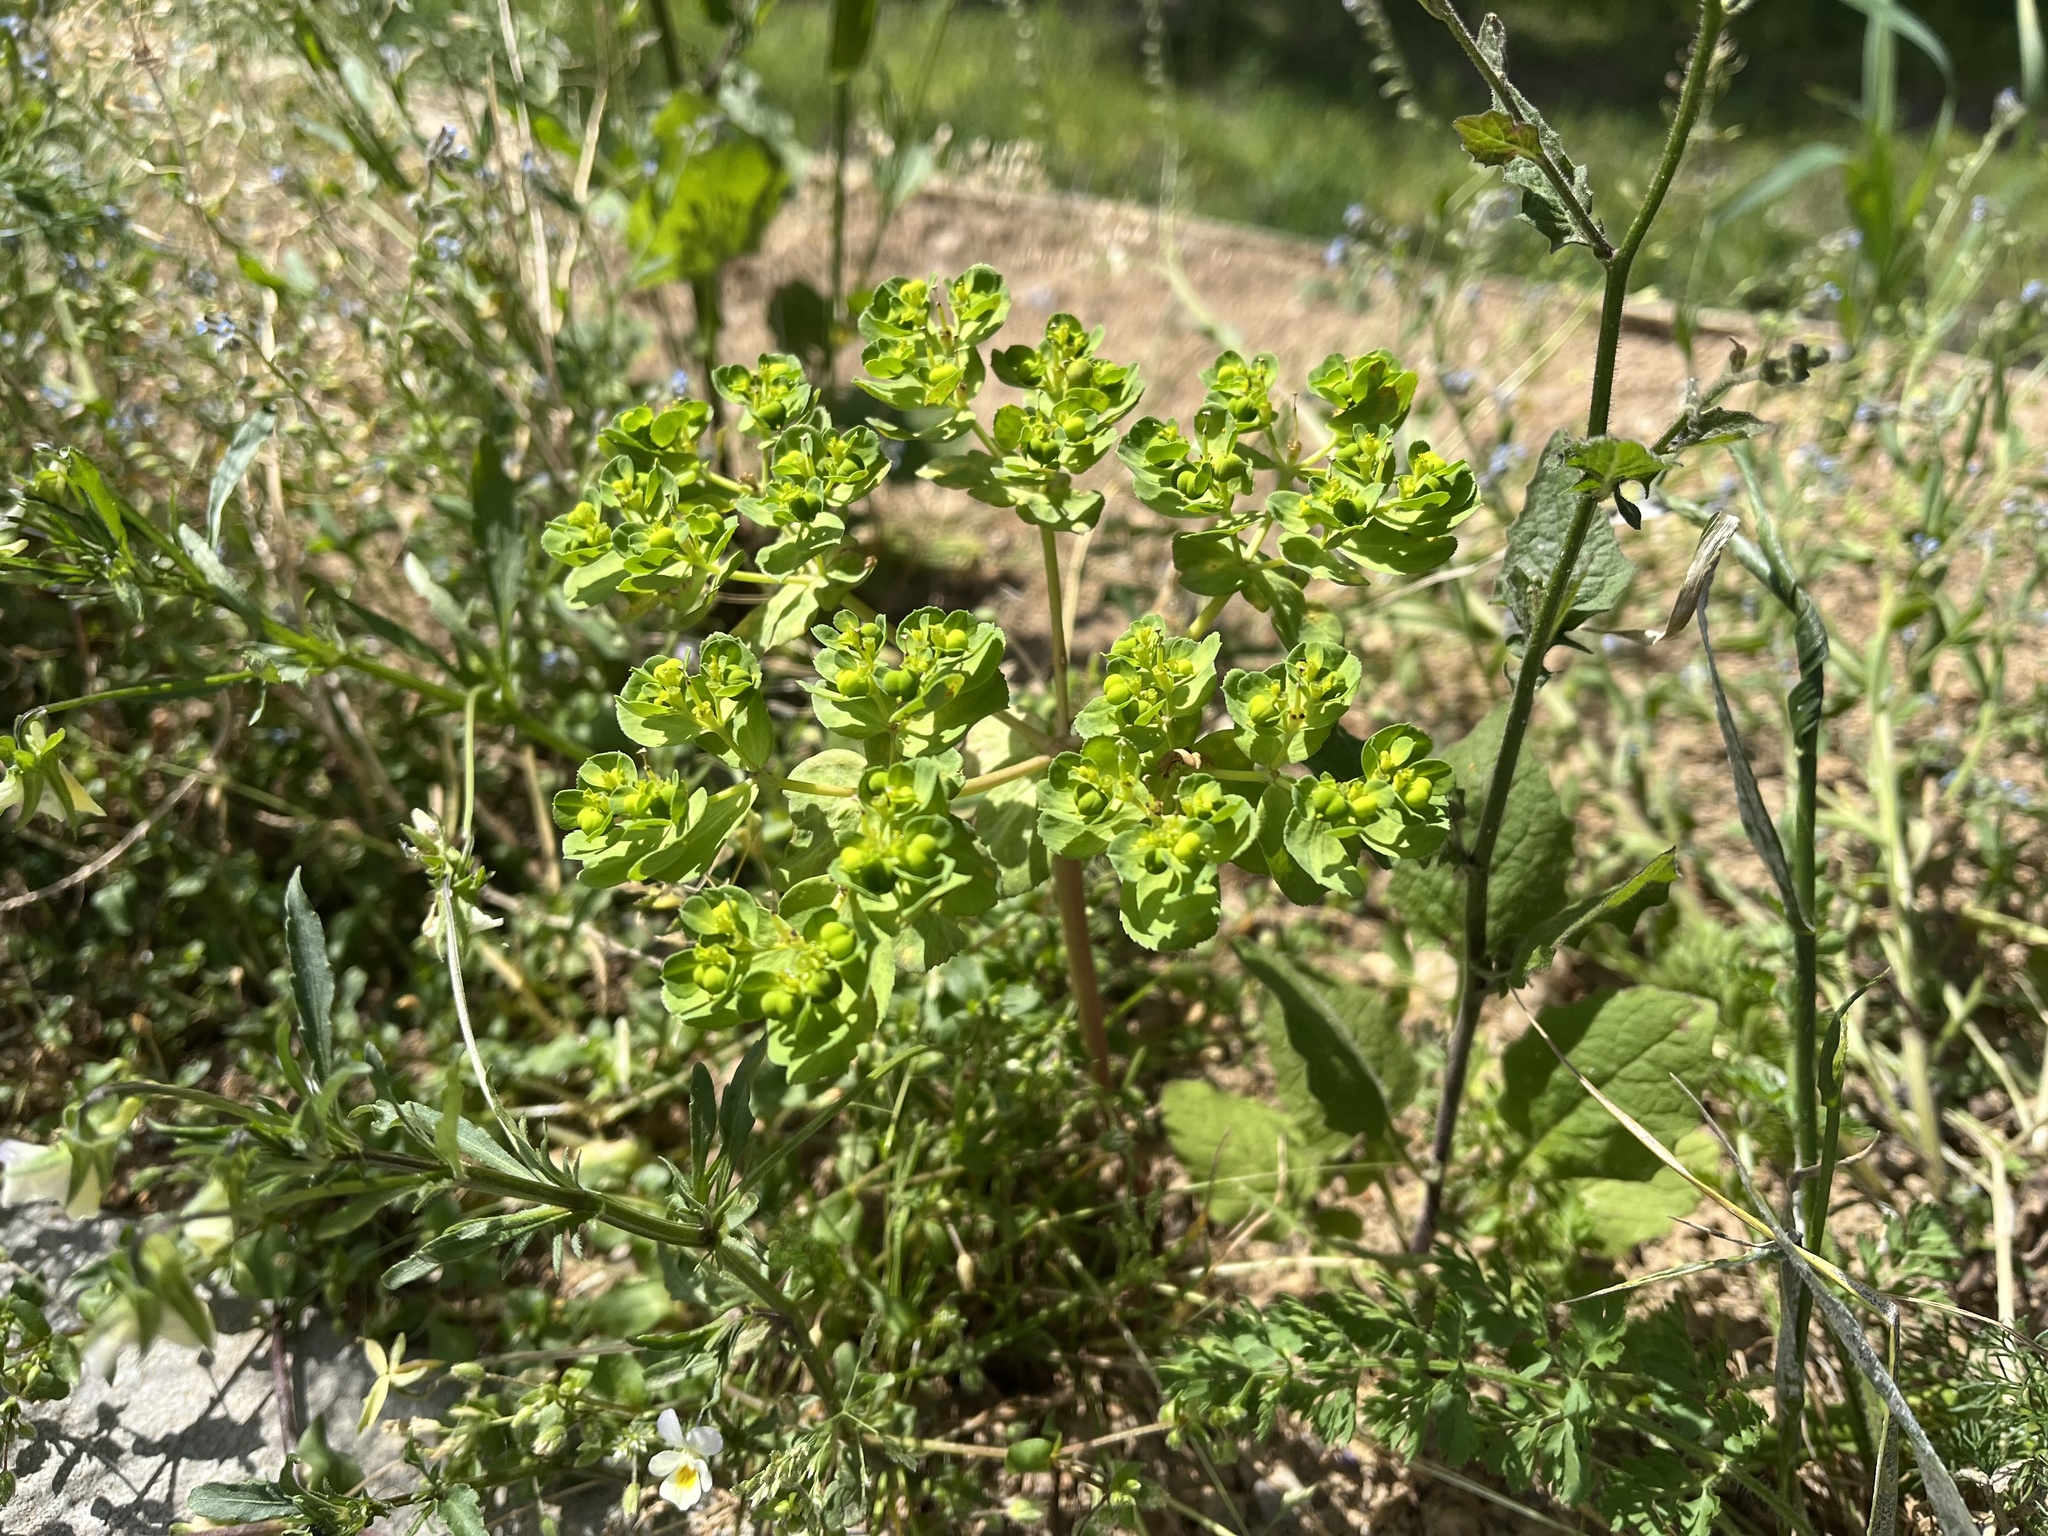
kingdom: Plantae
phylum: Tracheophyta
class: Magnoliopsida
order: Malpighiales
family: Euphorbiaceae
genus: Euphorbia
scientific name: Euphorbia helioscopia
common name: Sun spurge
